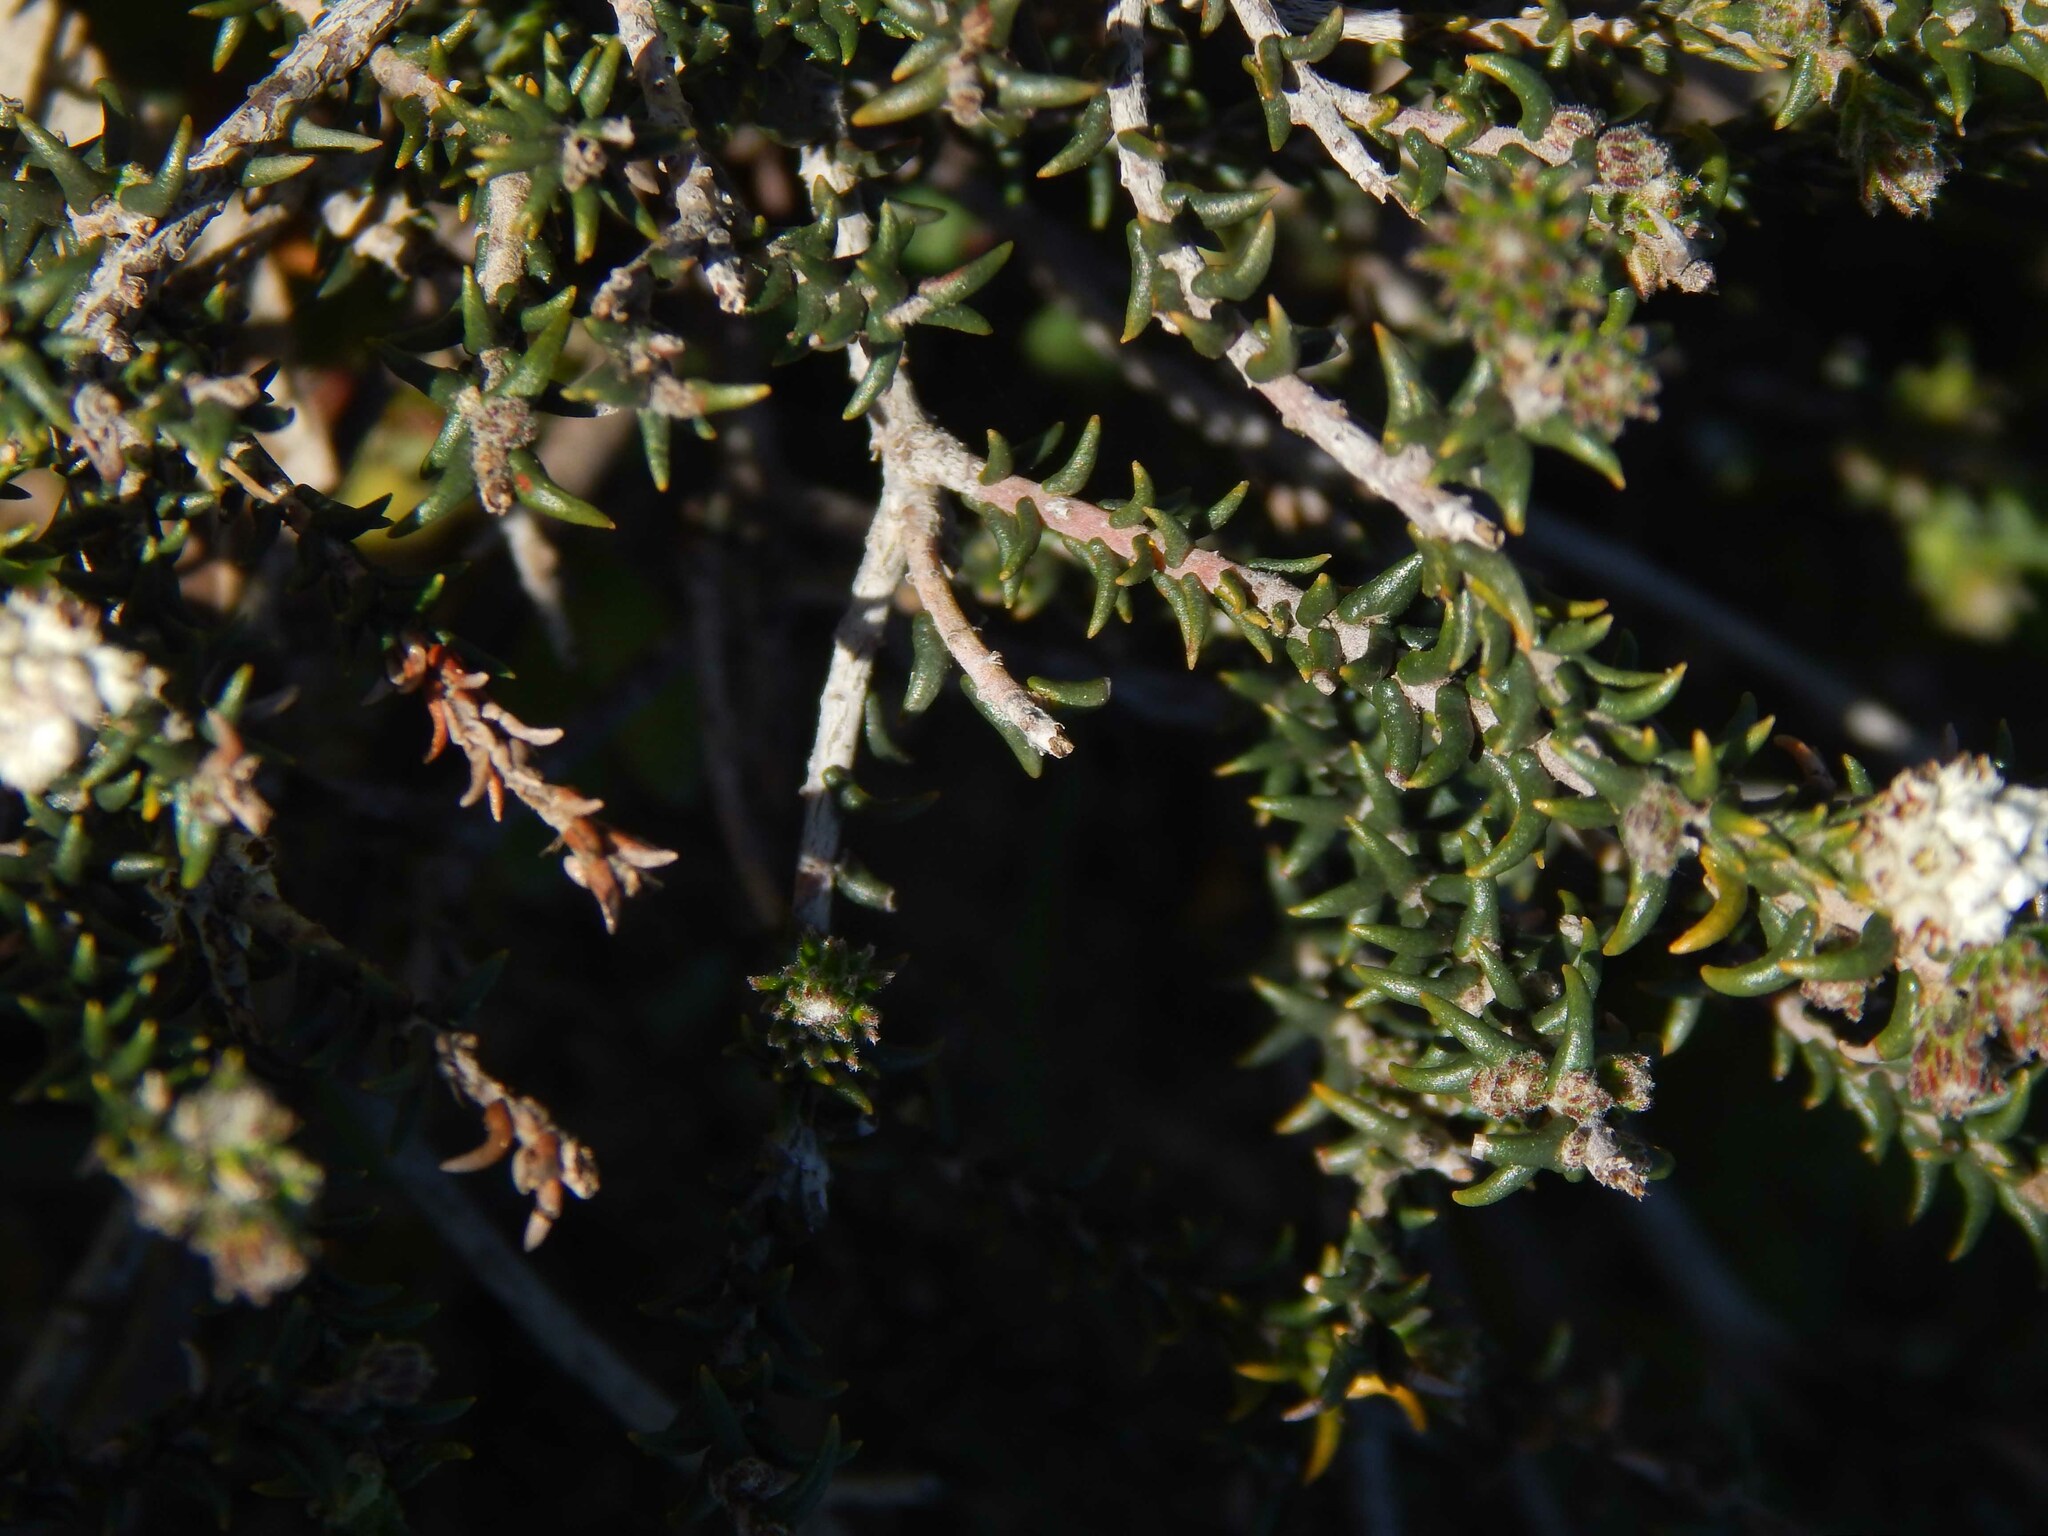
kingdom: Plantae
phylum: Tracheophyta
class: Magnoliopsida
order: Rosales
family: Rhamnaceae
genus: Phylica
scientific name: Phylica thunbergiana
